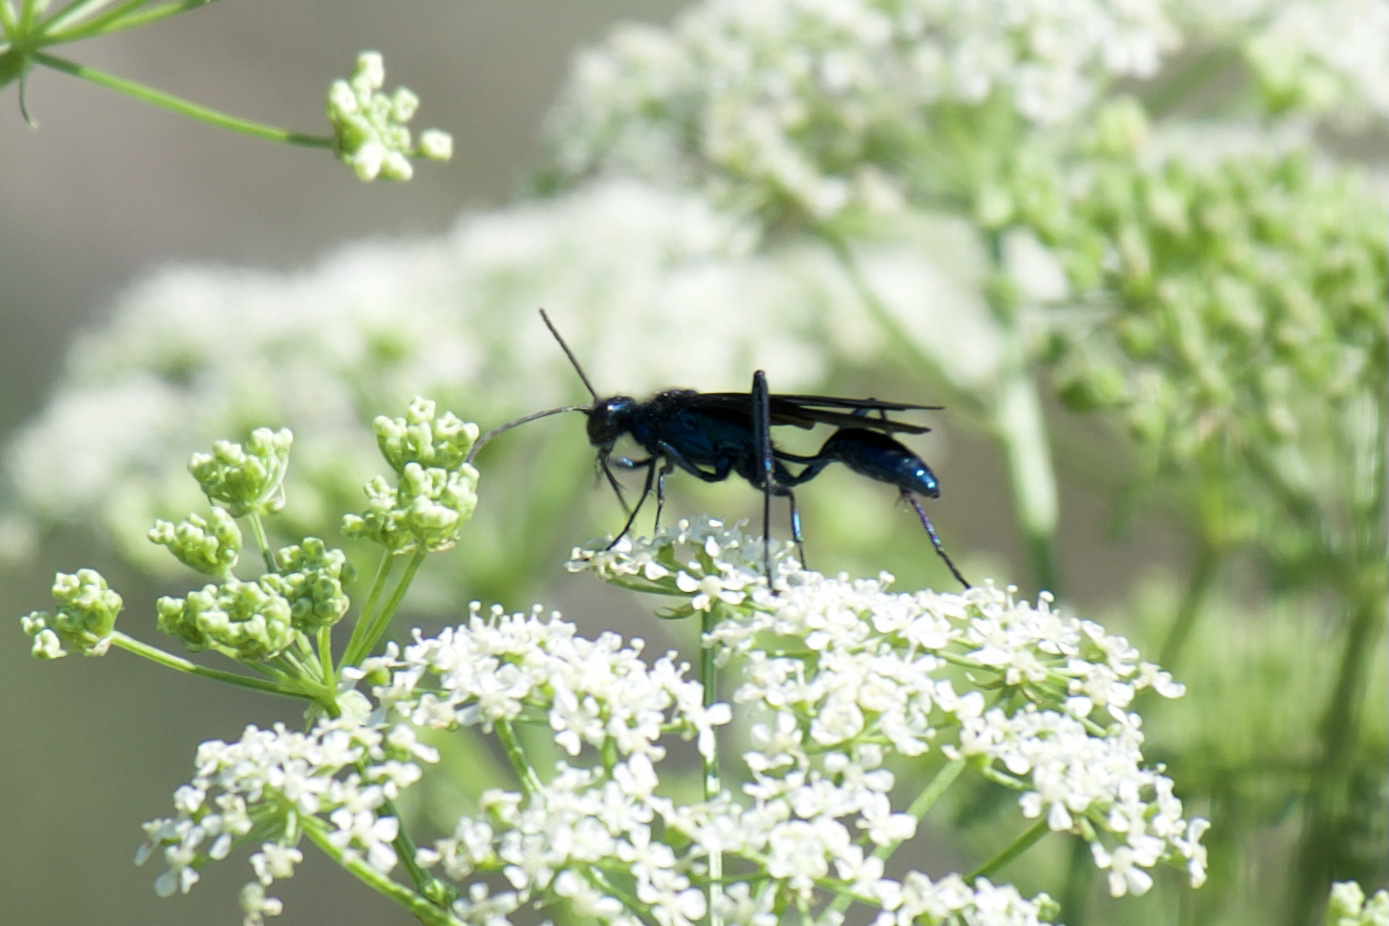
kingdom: Animalia
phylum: Arthropoda
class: Insecta
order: Hymenoptera
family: Sphecidae
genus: Chalybion
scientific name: Chalybion californicum
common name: Mud dauber
